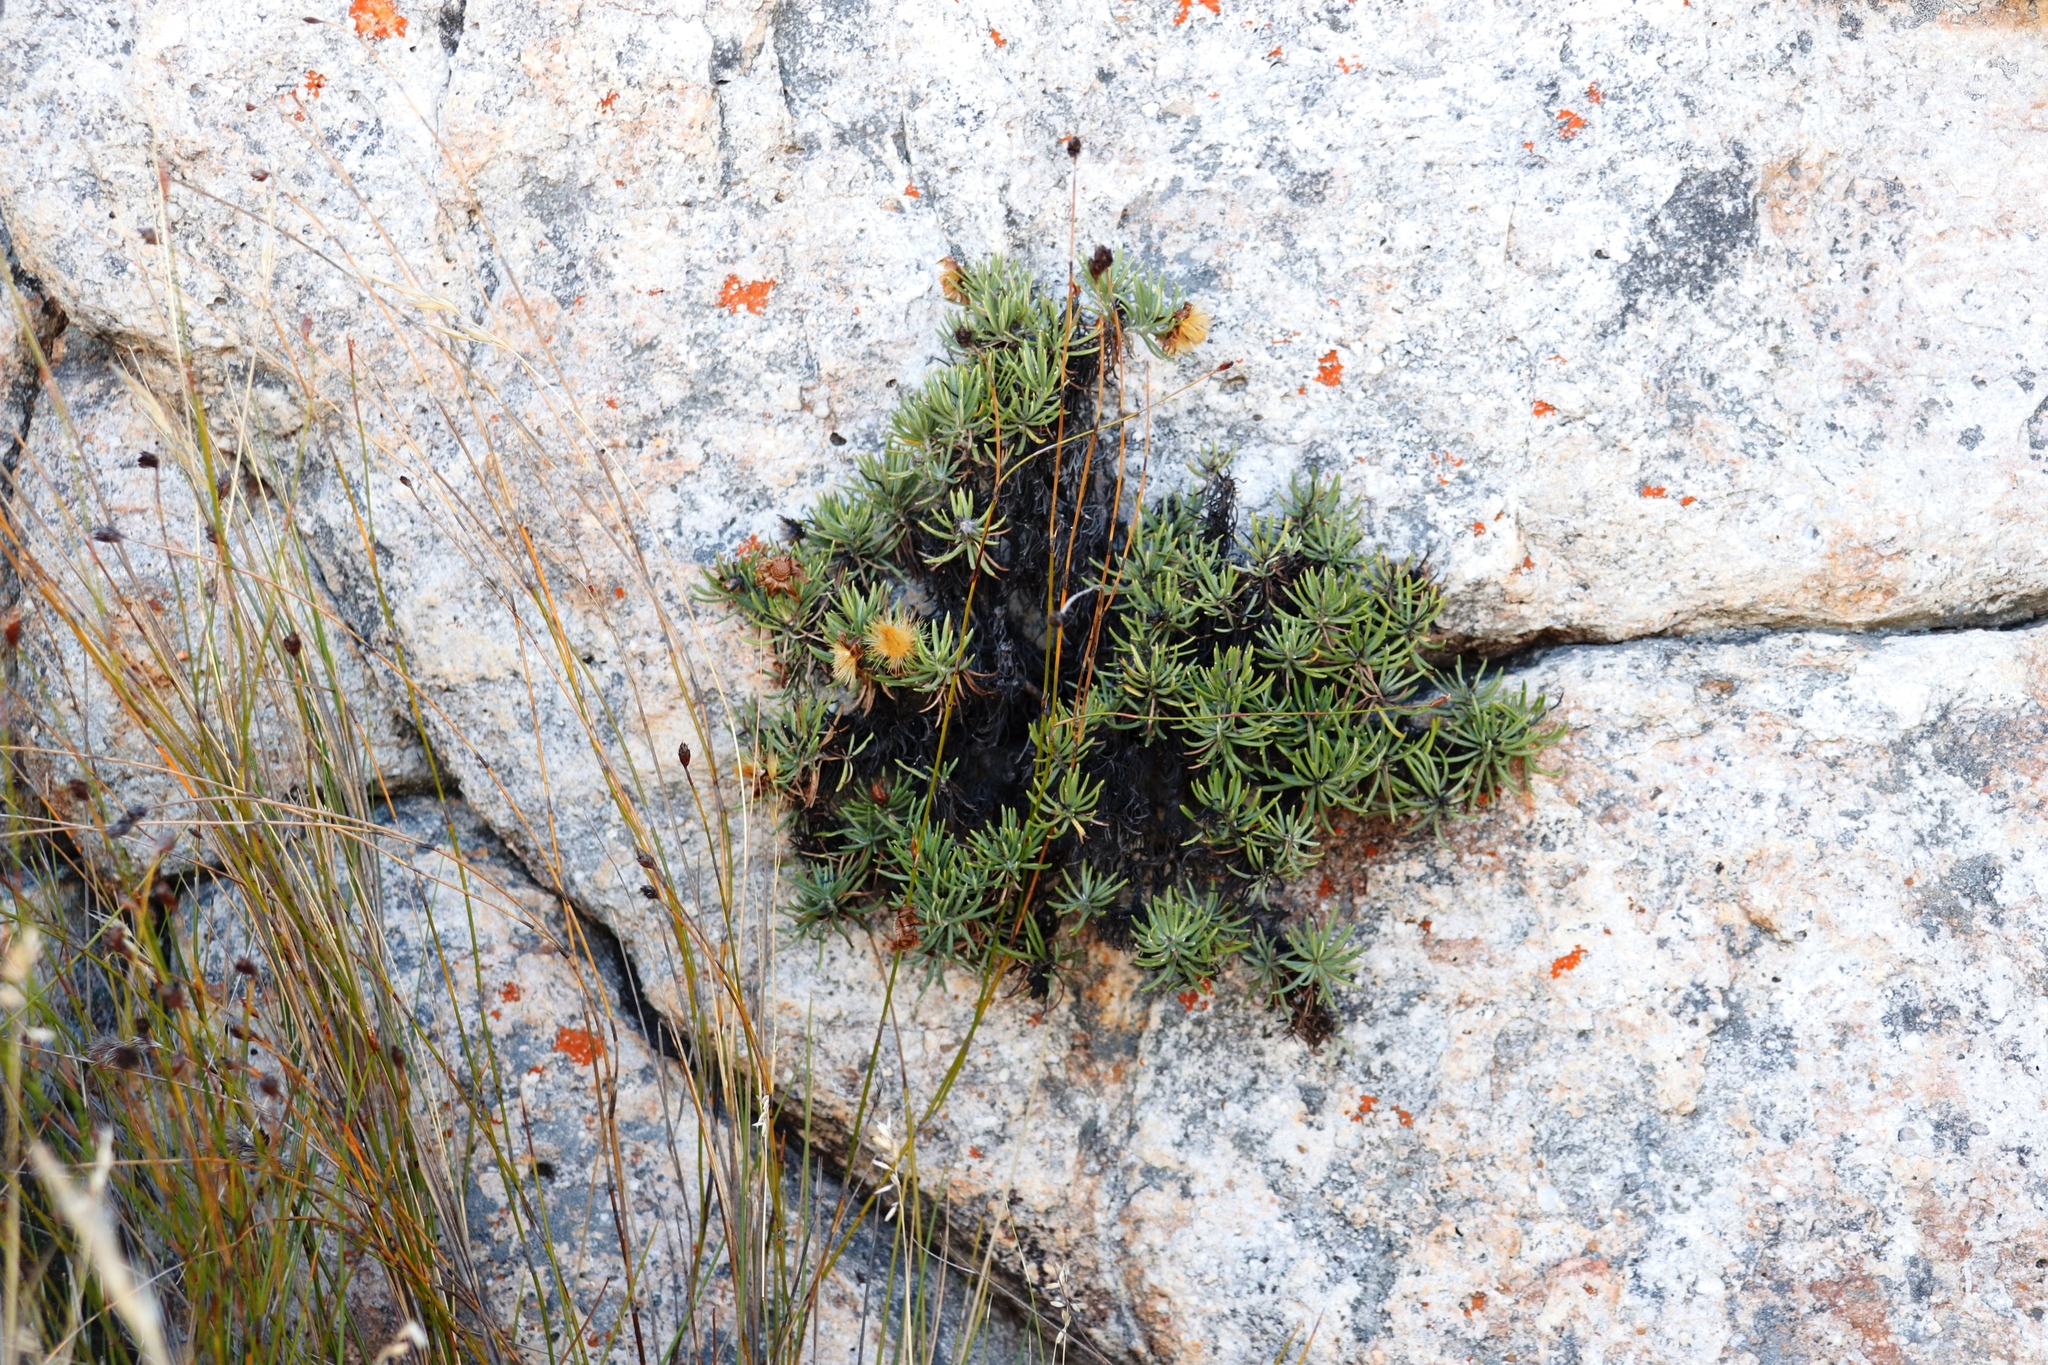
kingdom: Plantae
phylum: Tracheophyta
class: Magnoliopsida
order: Asterales
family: Asteraceae
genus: Heterolepis
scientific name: Heterolepis aliena
